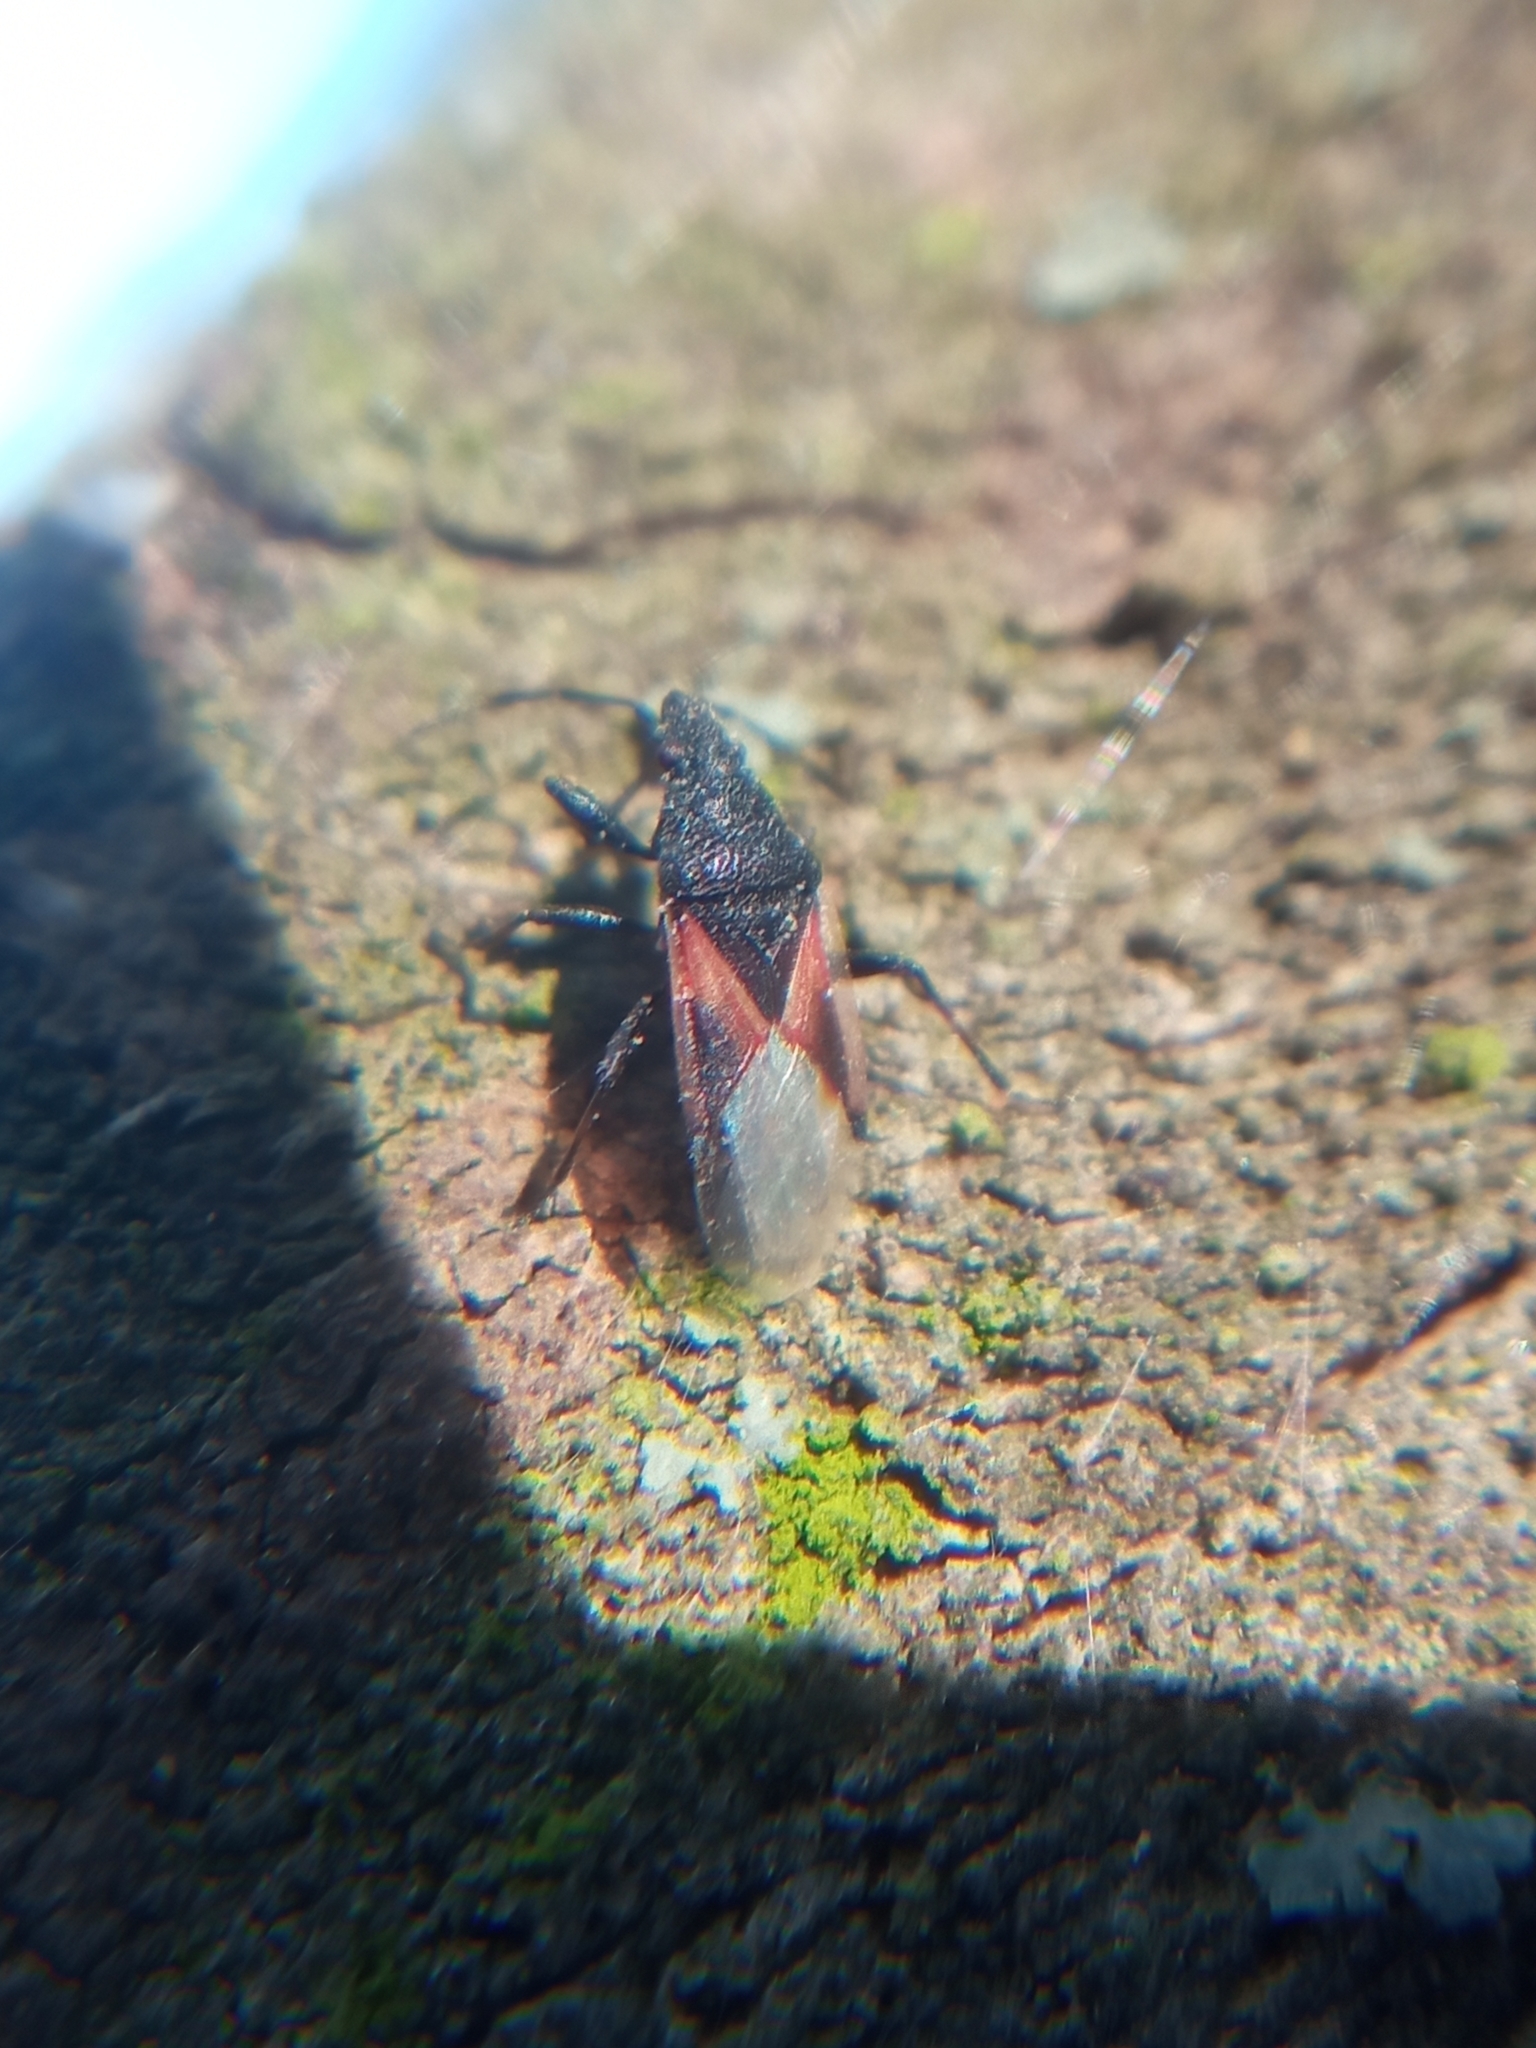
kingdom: Animalia
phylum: Arthropoda
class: Insecta
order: Hemiptera
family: Oxycarenidae
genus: Oxycarenus
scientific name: Oxycarenus lavaterae
